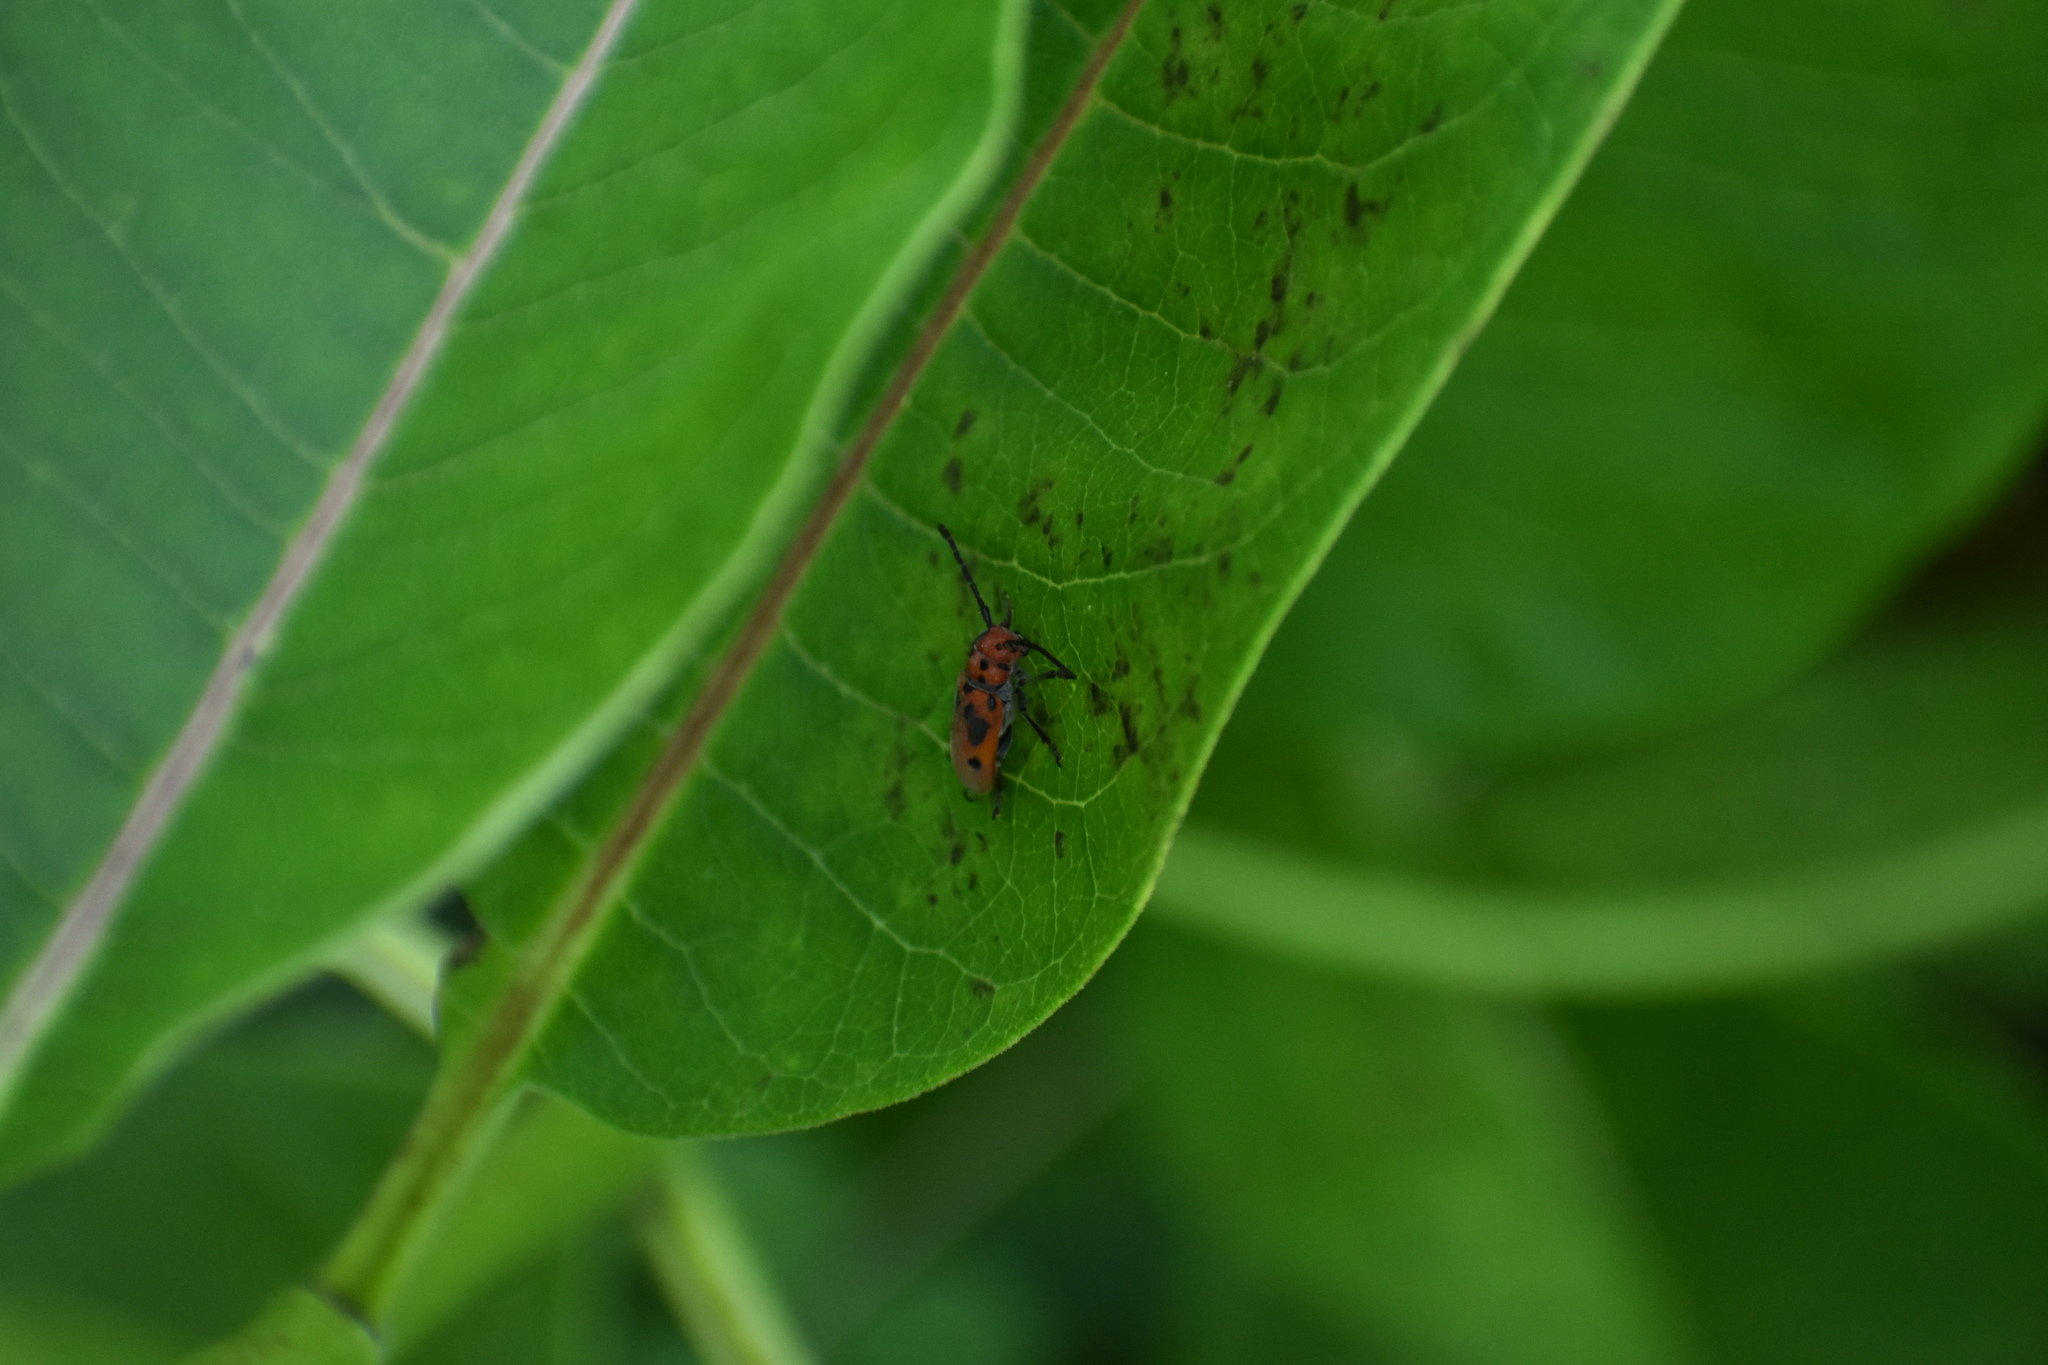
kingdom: Animalia
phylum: Arthropoda
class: Insecta
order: Coleoptera
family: Cerambycidae
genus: Tetraopes
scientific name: Tetraopes tetrophthalmus
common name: Red milkweed beetle
